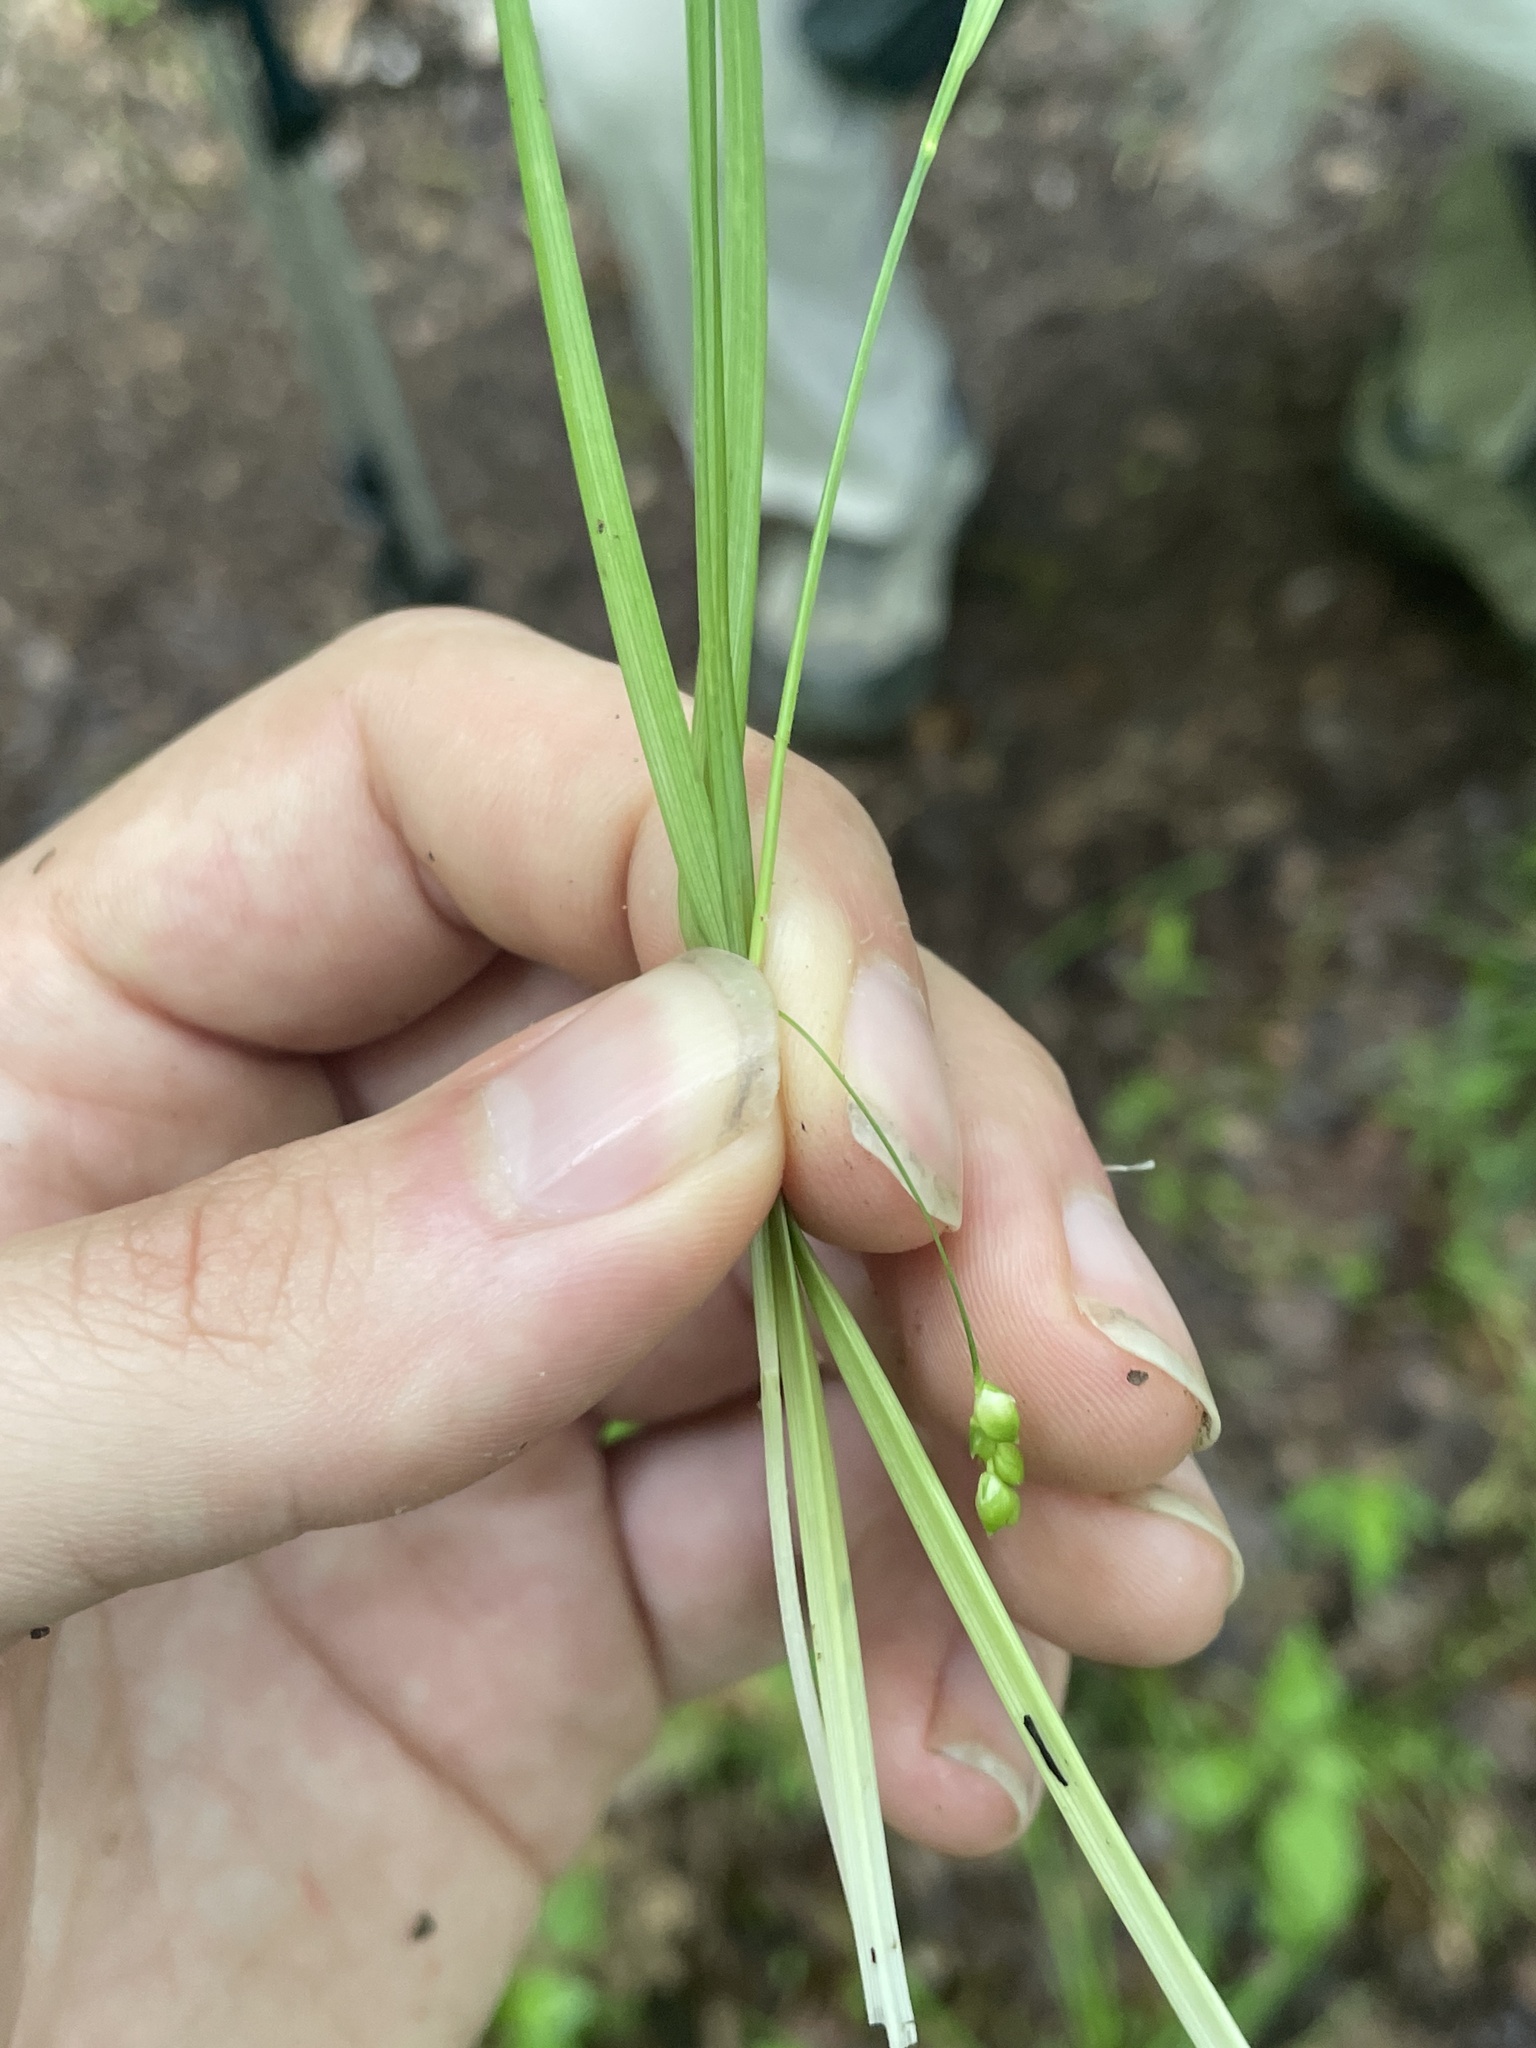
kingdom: Plantae
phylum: Tracheophyta
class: Liliopsida
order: Poales
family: Cyperaceae
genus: Carex
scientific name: Carex laxiculmis
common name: Spreading sedge
